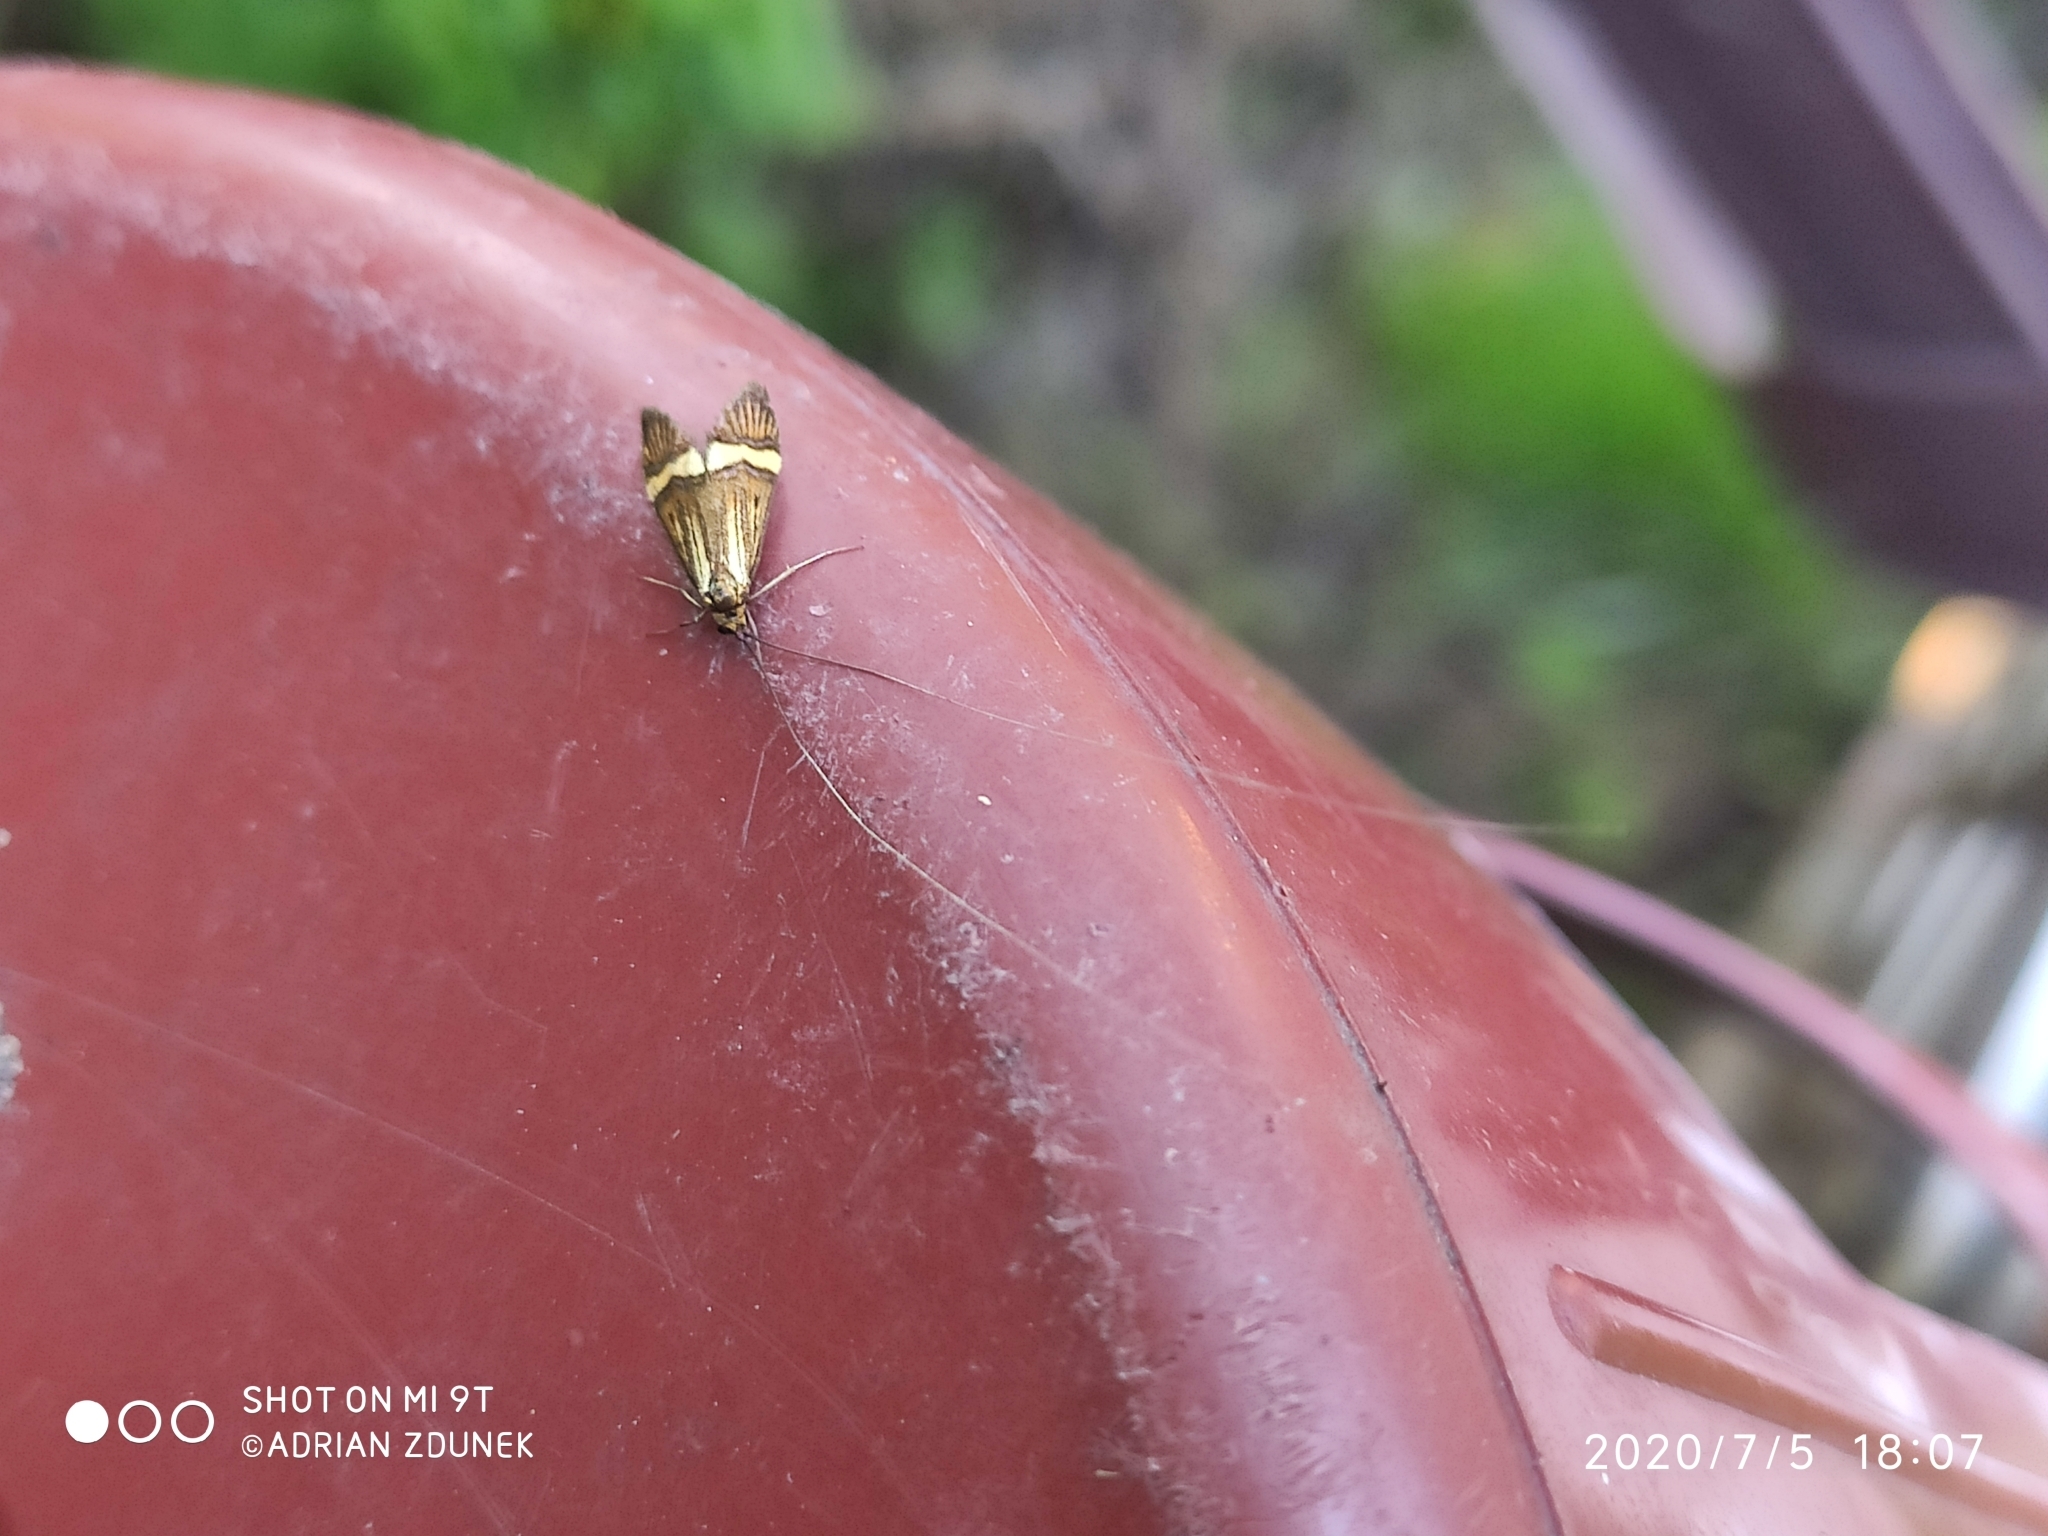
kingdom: Animalia
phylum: Arthropoda
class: Insecta
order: Lepidoptera
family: Adelidae
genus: Nemophora
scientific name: Nemophora degeerella
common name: Yellow-barred long-horn
